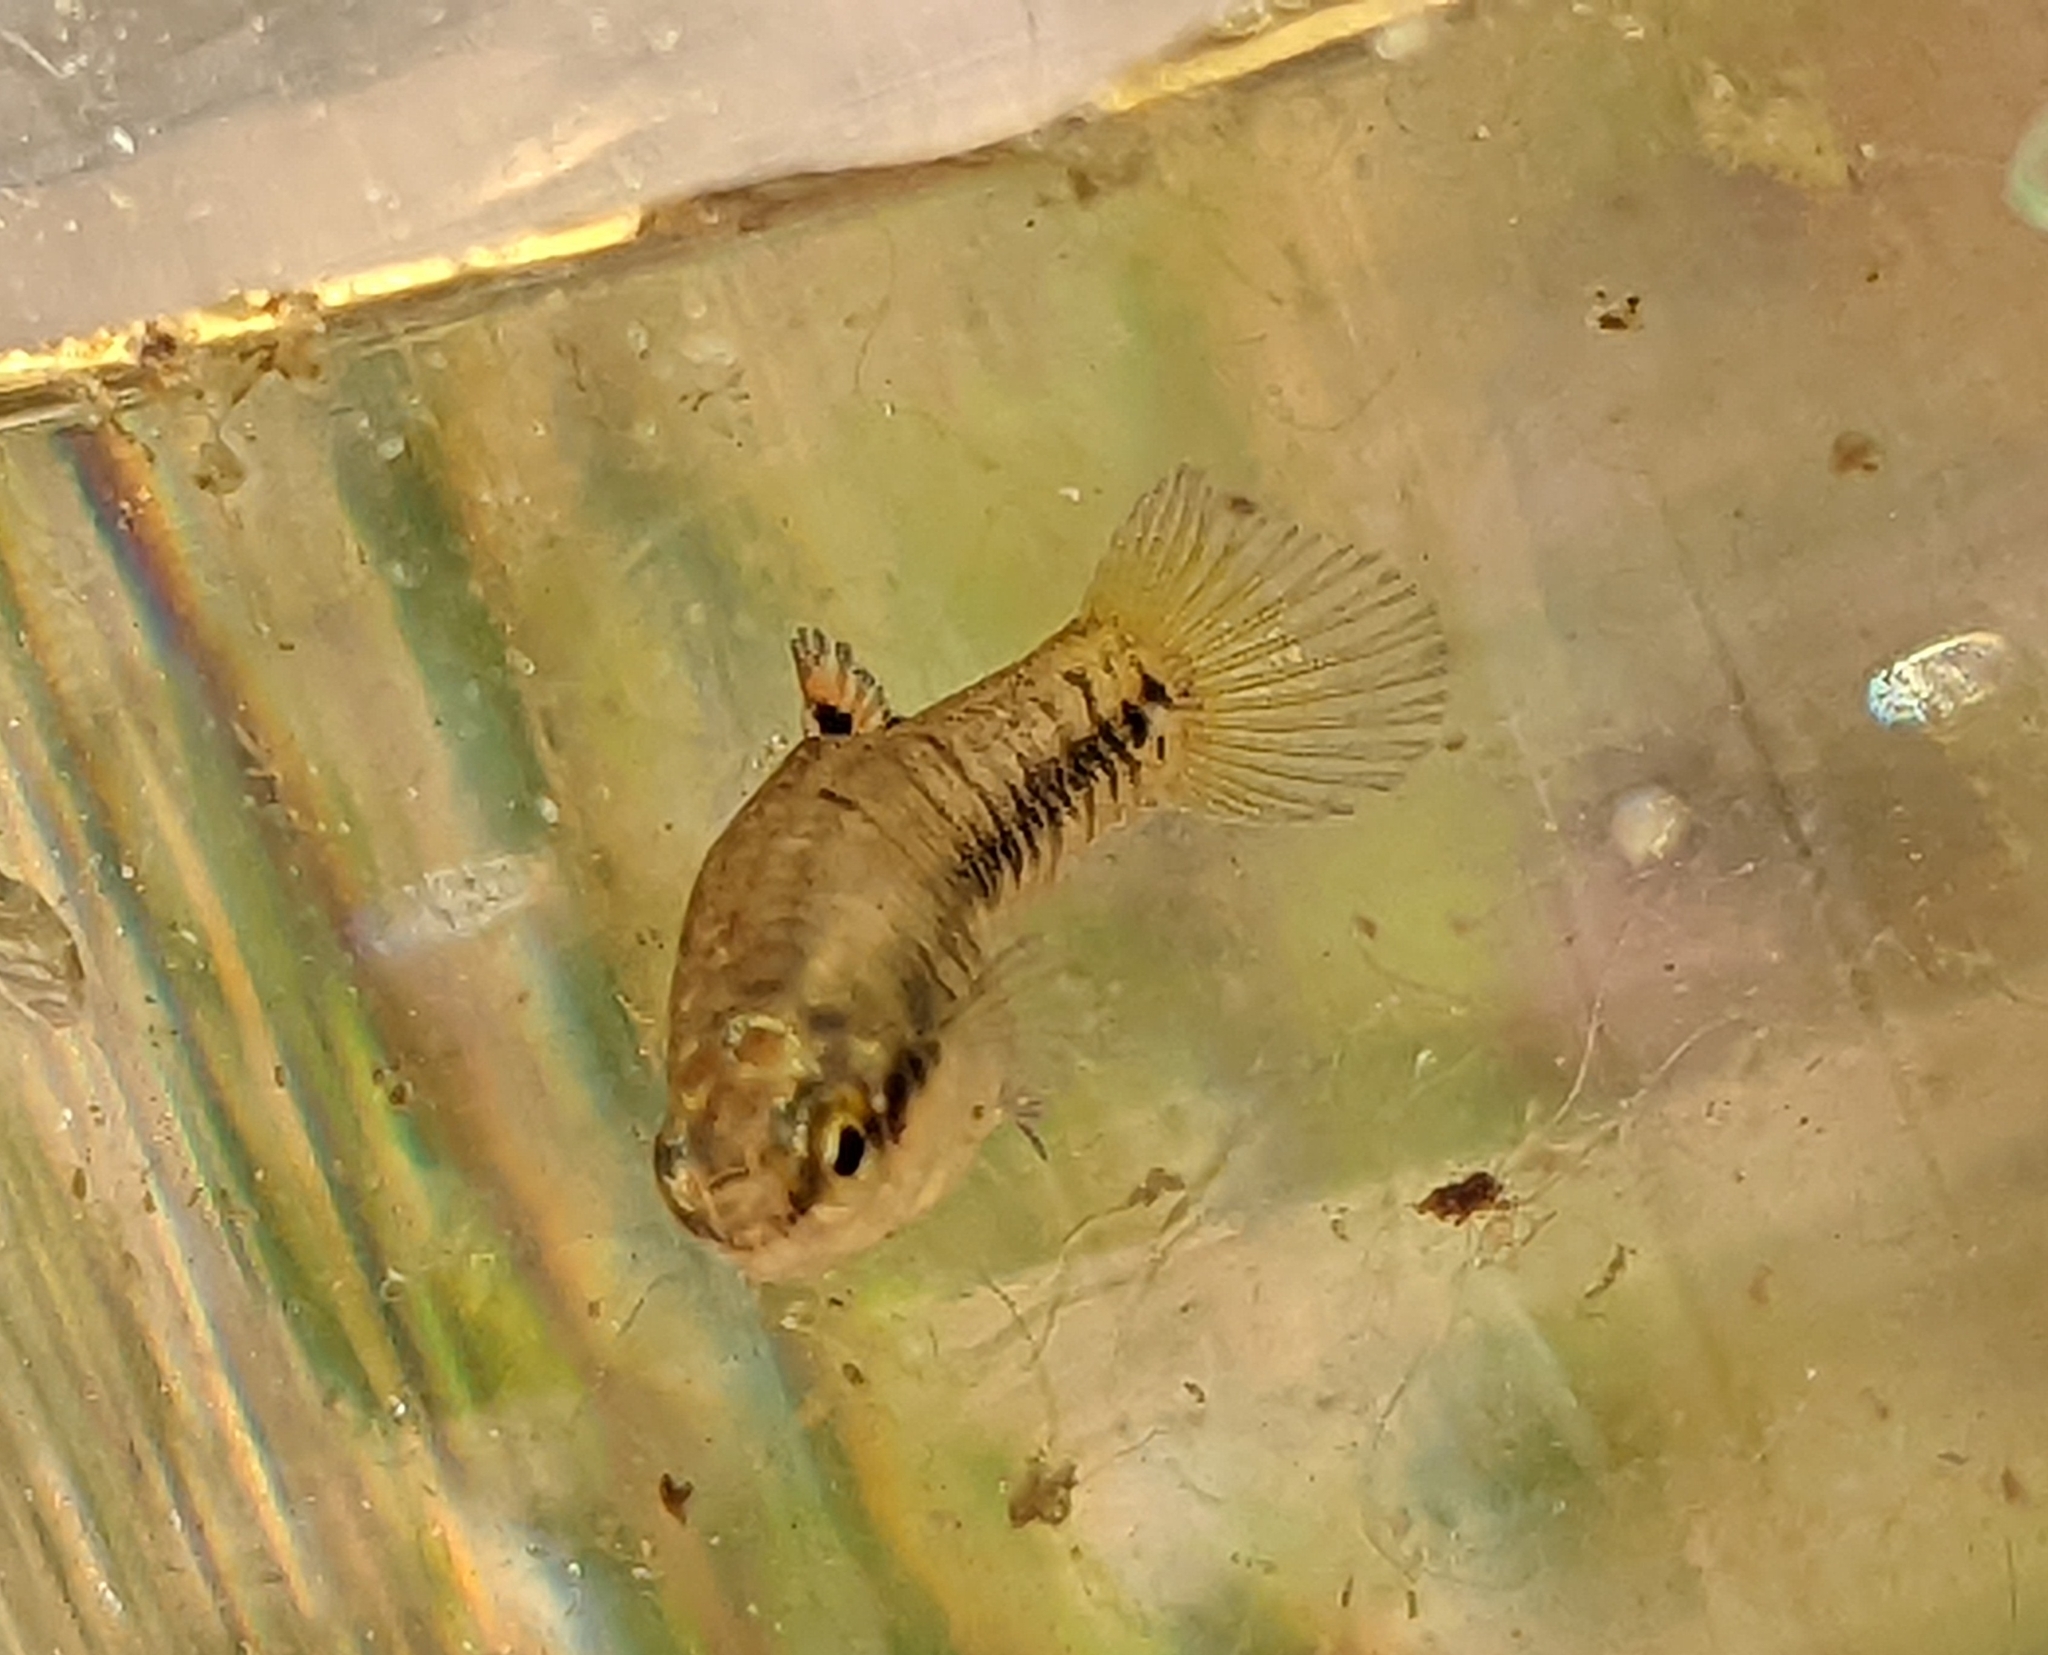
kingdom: Animalia
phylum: Chordata
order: Cyprinodontiformes
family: Poeciliidae
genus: Heterandria
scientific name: Heterandria formosa
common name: Least killifish
